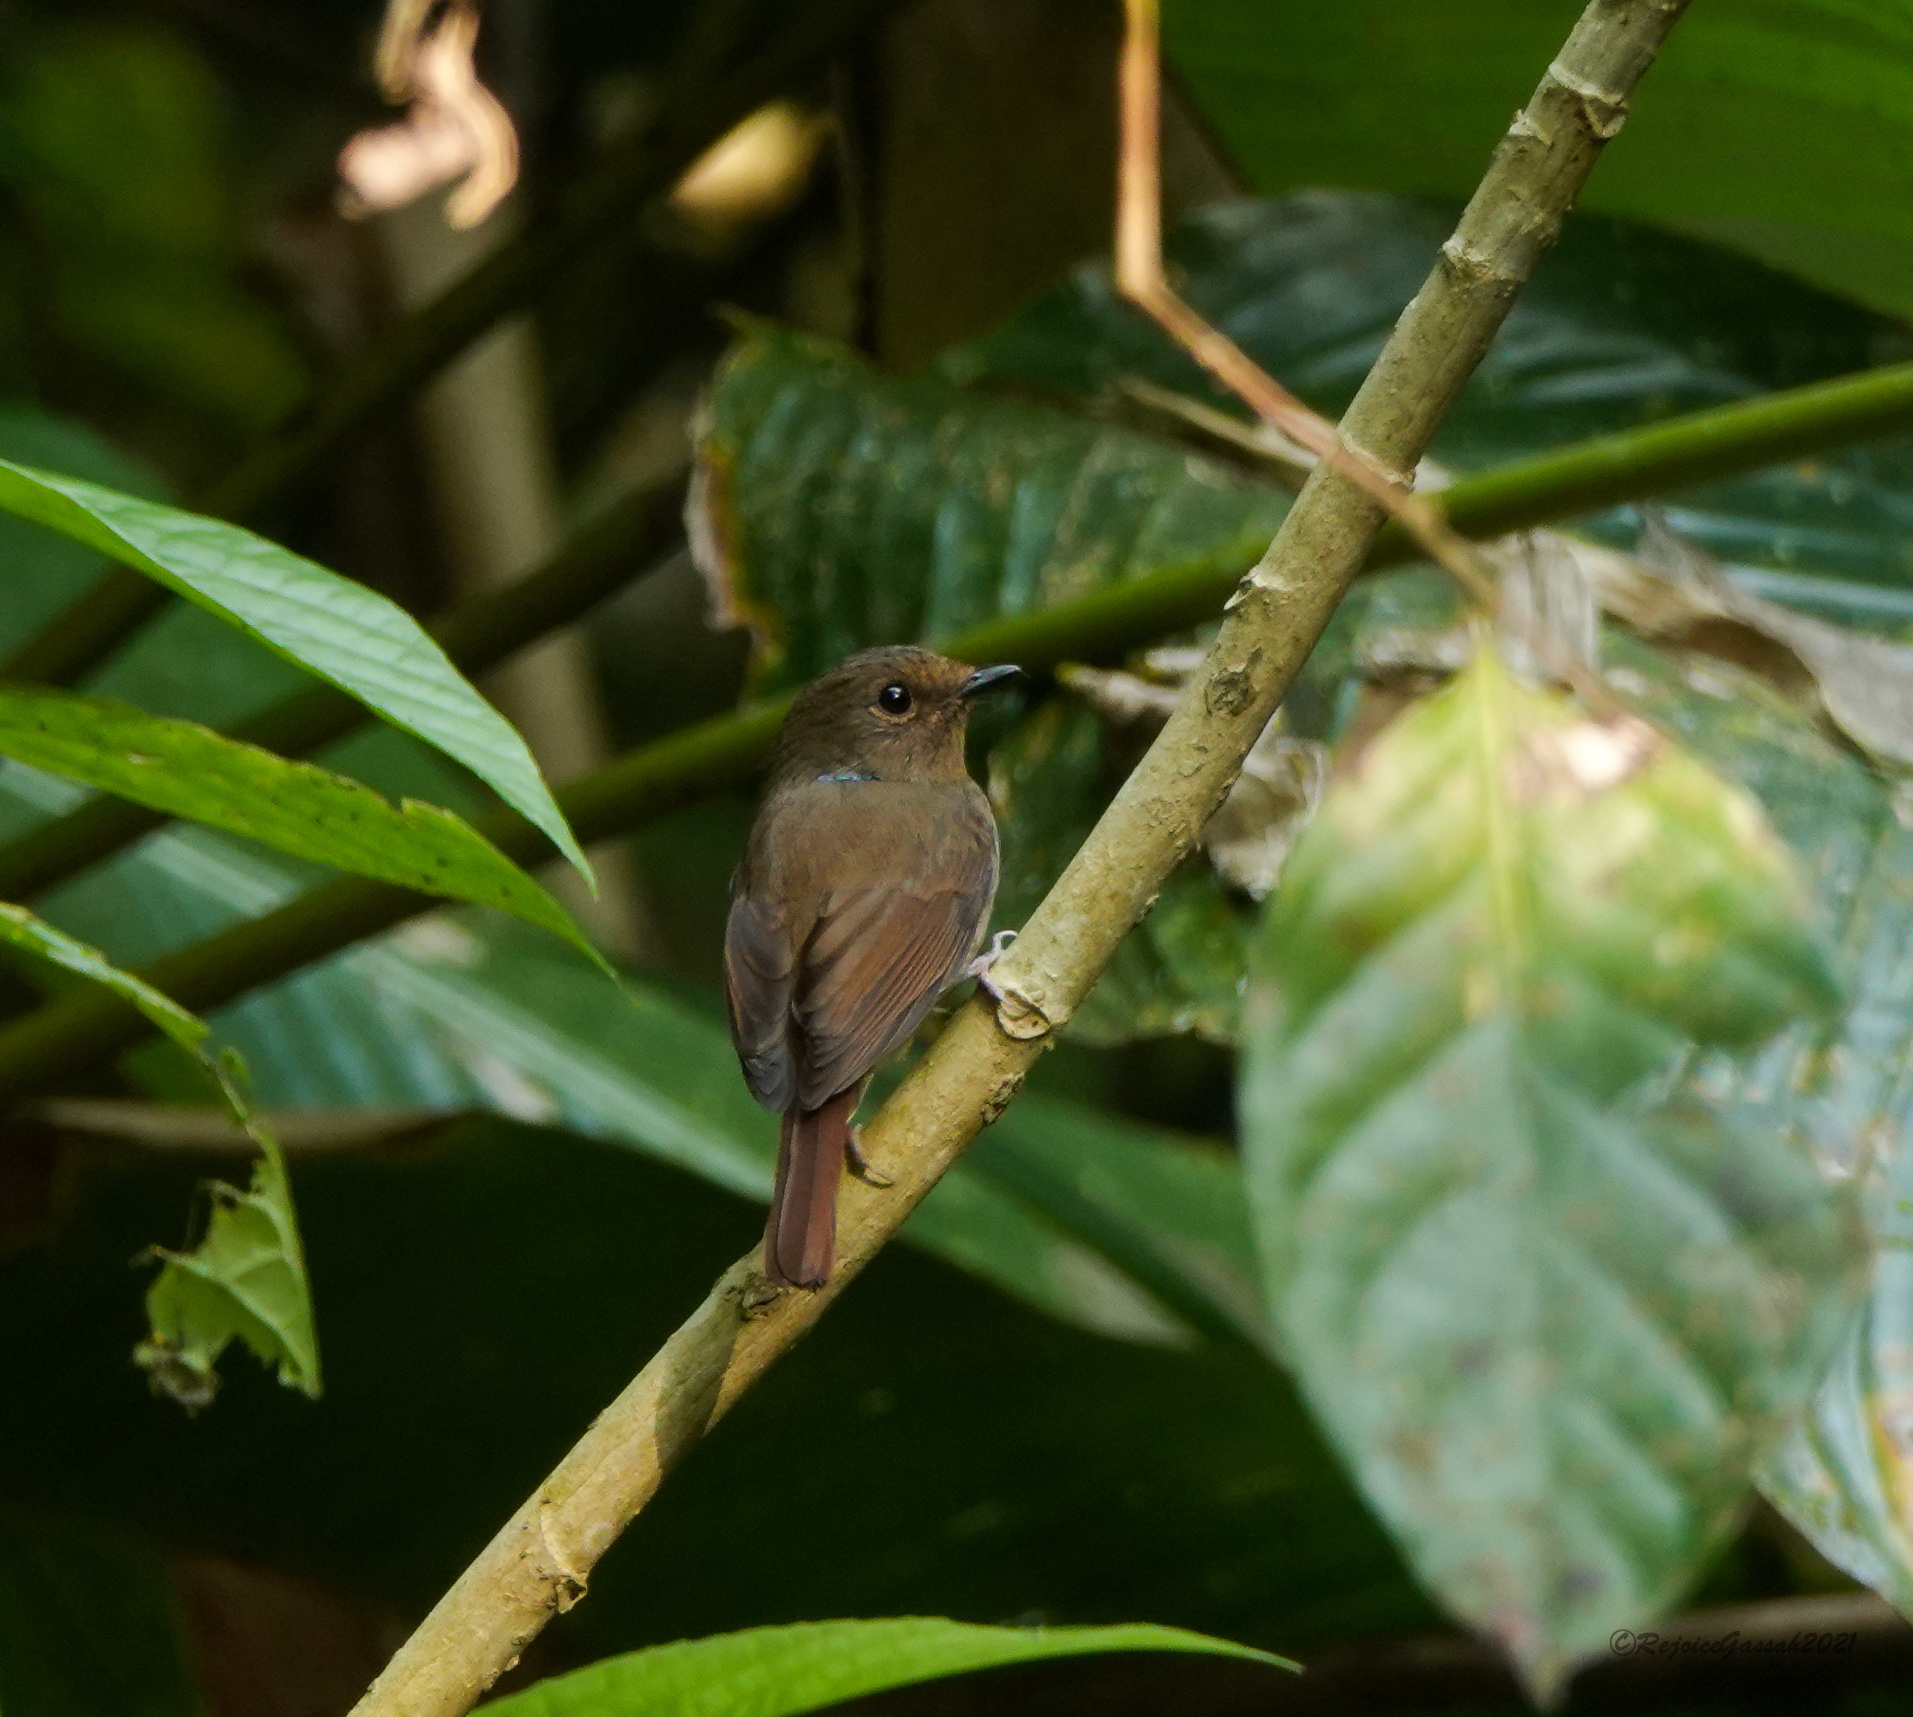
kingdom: Animalia
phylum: Chordata
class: Aves
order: Passeriformes
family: Muscicapidae
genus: Niltava
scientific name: Niltava macgrigoriae
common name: Small niltava
